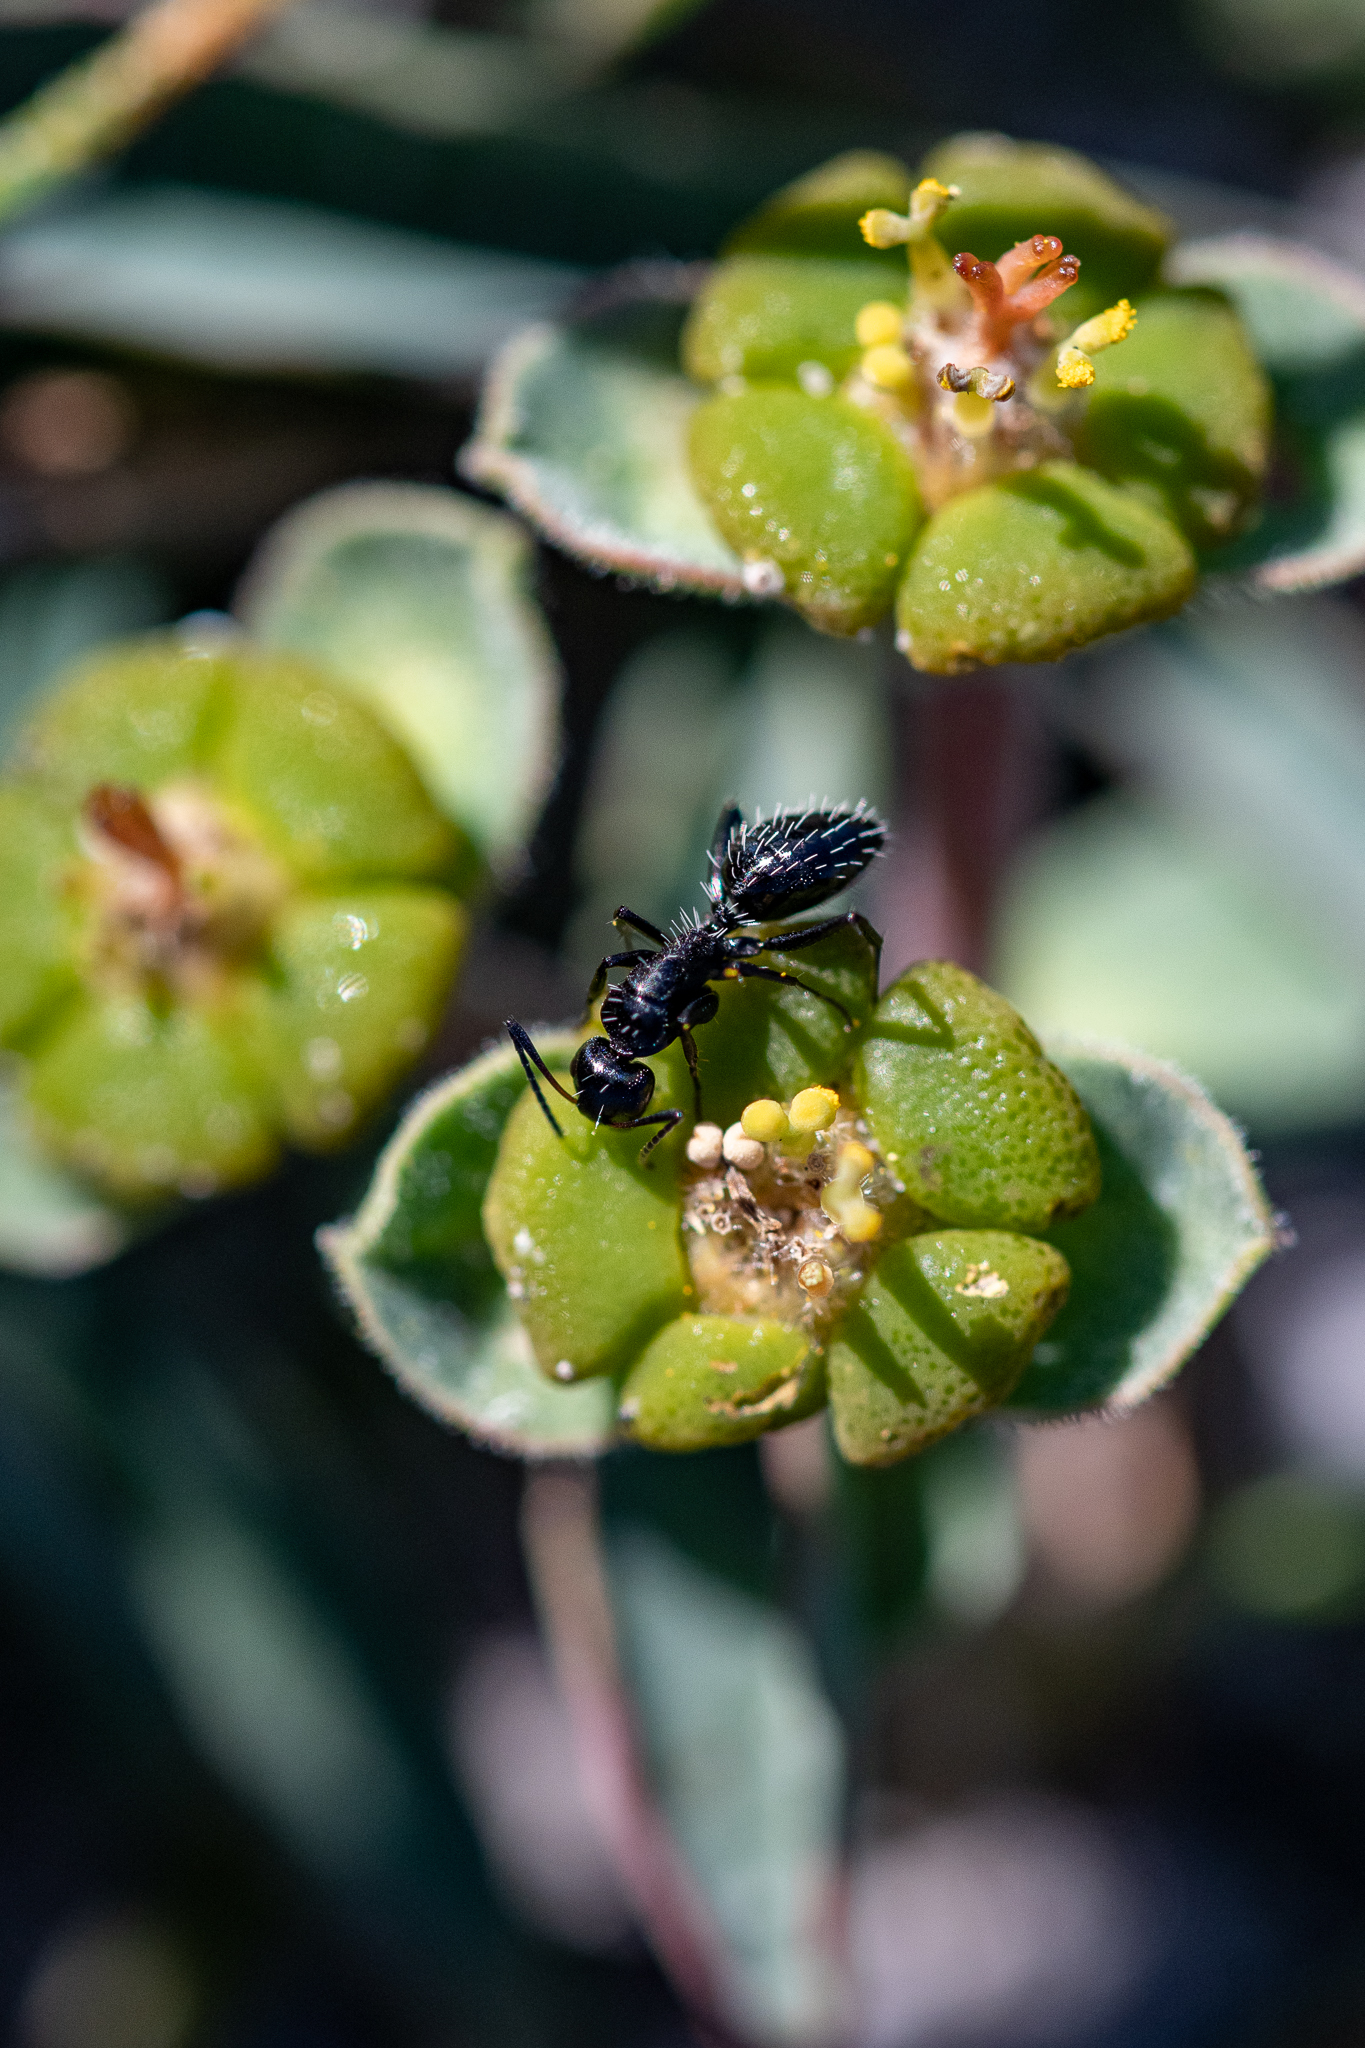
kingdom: Animalia
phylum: Arthropoda
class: Insecta
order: Hymenoptera
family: Formicidae
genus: Camponotus
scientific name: Camponotus niveosetosus
